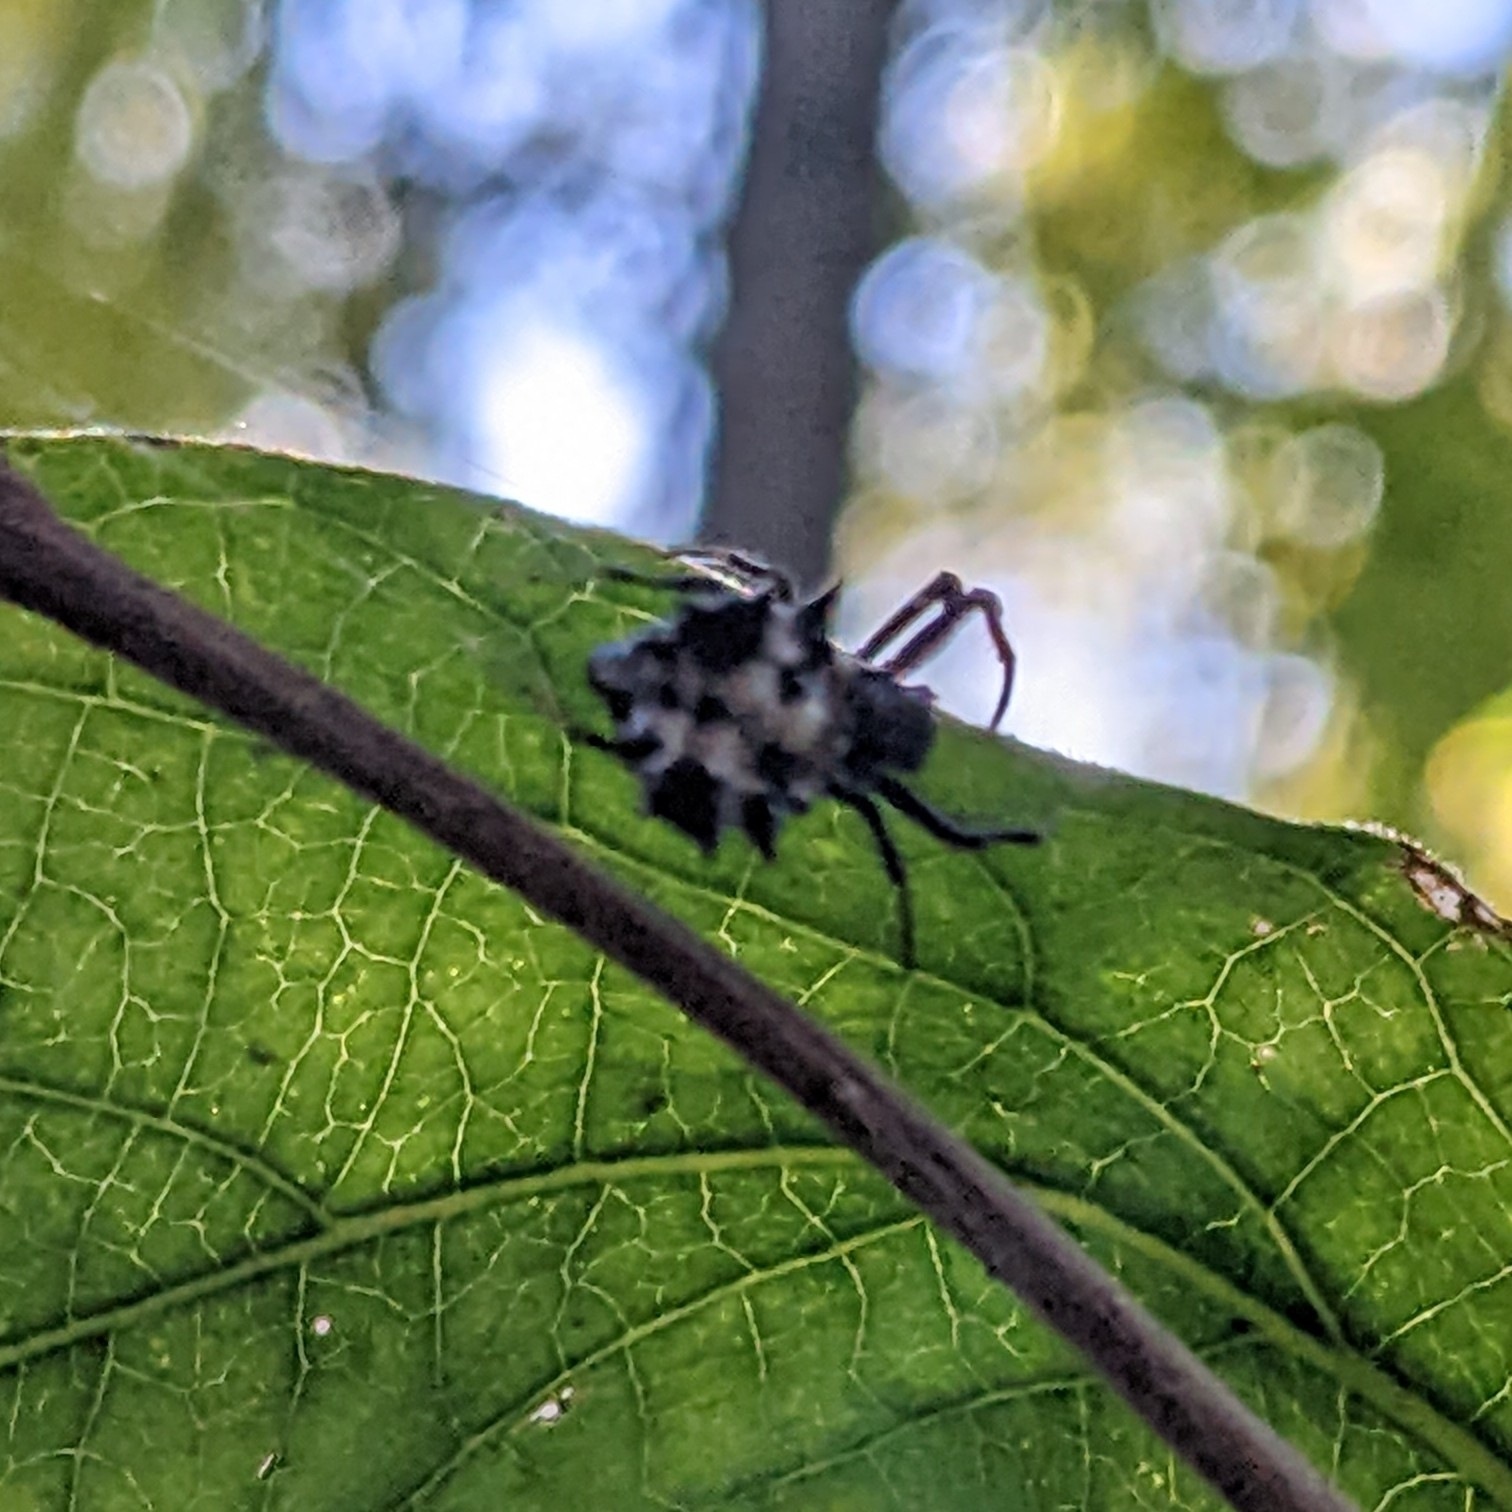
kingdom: Animalia
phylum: Arthropoda
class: Arachnida
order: Araneae
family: Araneidae
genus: Micrathena
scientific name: Micrathena gracilis
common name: Orb weavers
